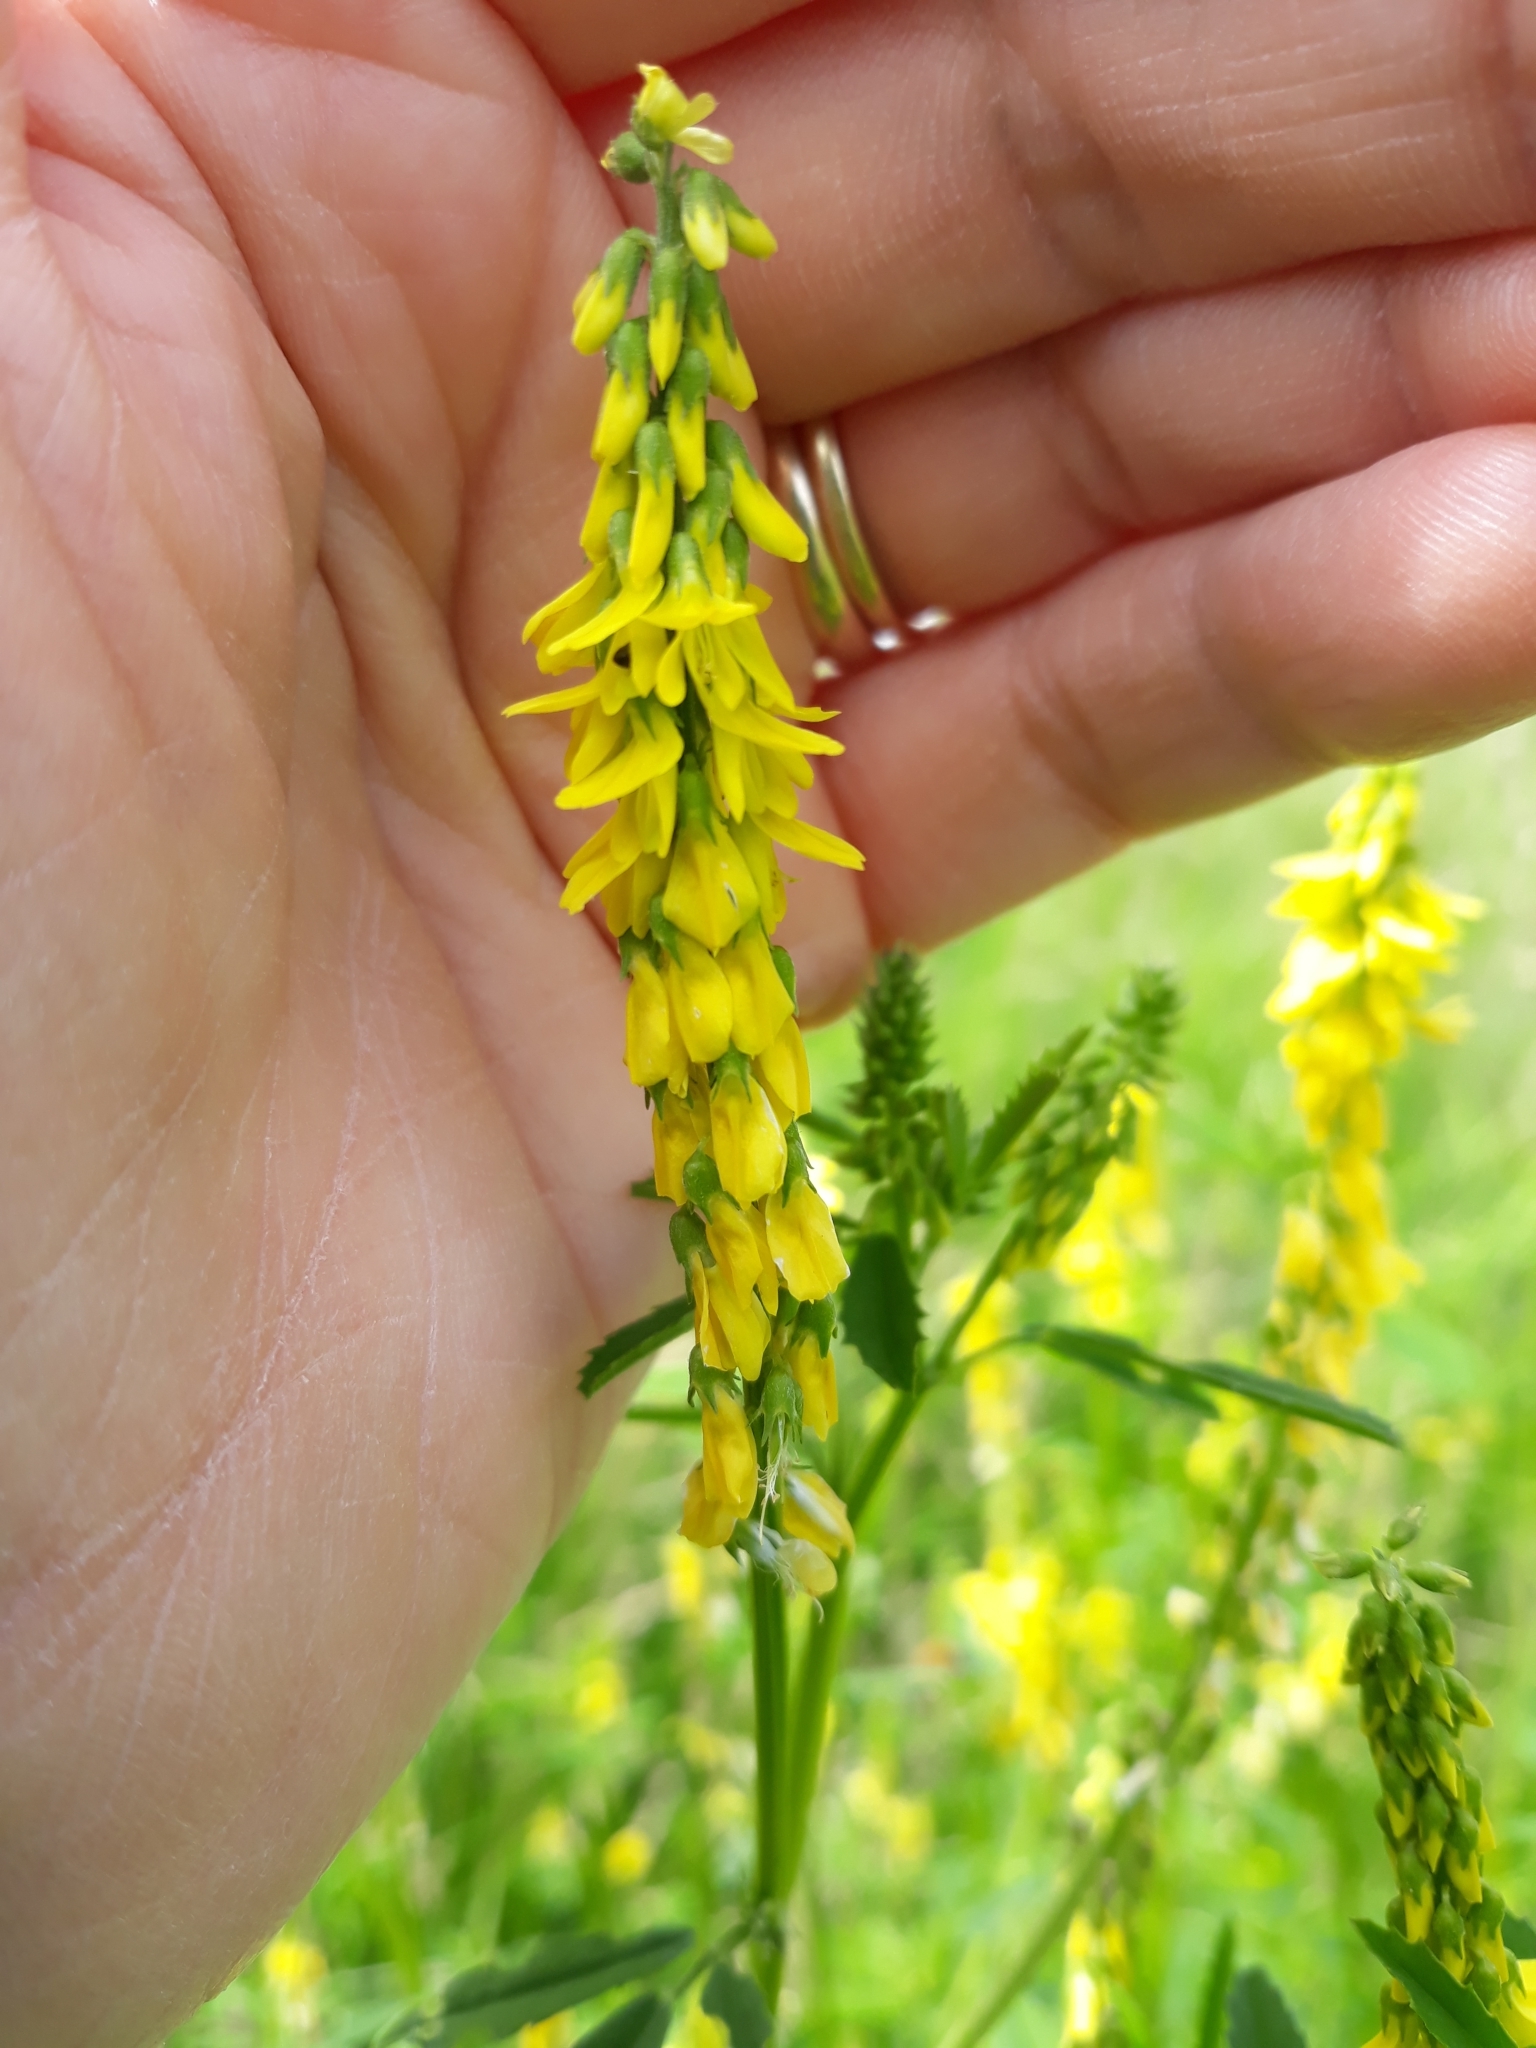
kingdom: Plantae
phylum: Tracheophyta
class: Magnoliopsida
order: Fabales
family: Fabaceae
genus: Melilotus
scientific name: Melilotus officinalis
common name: Sweetclover
